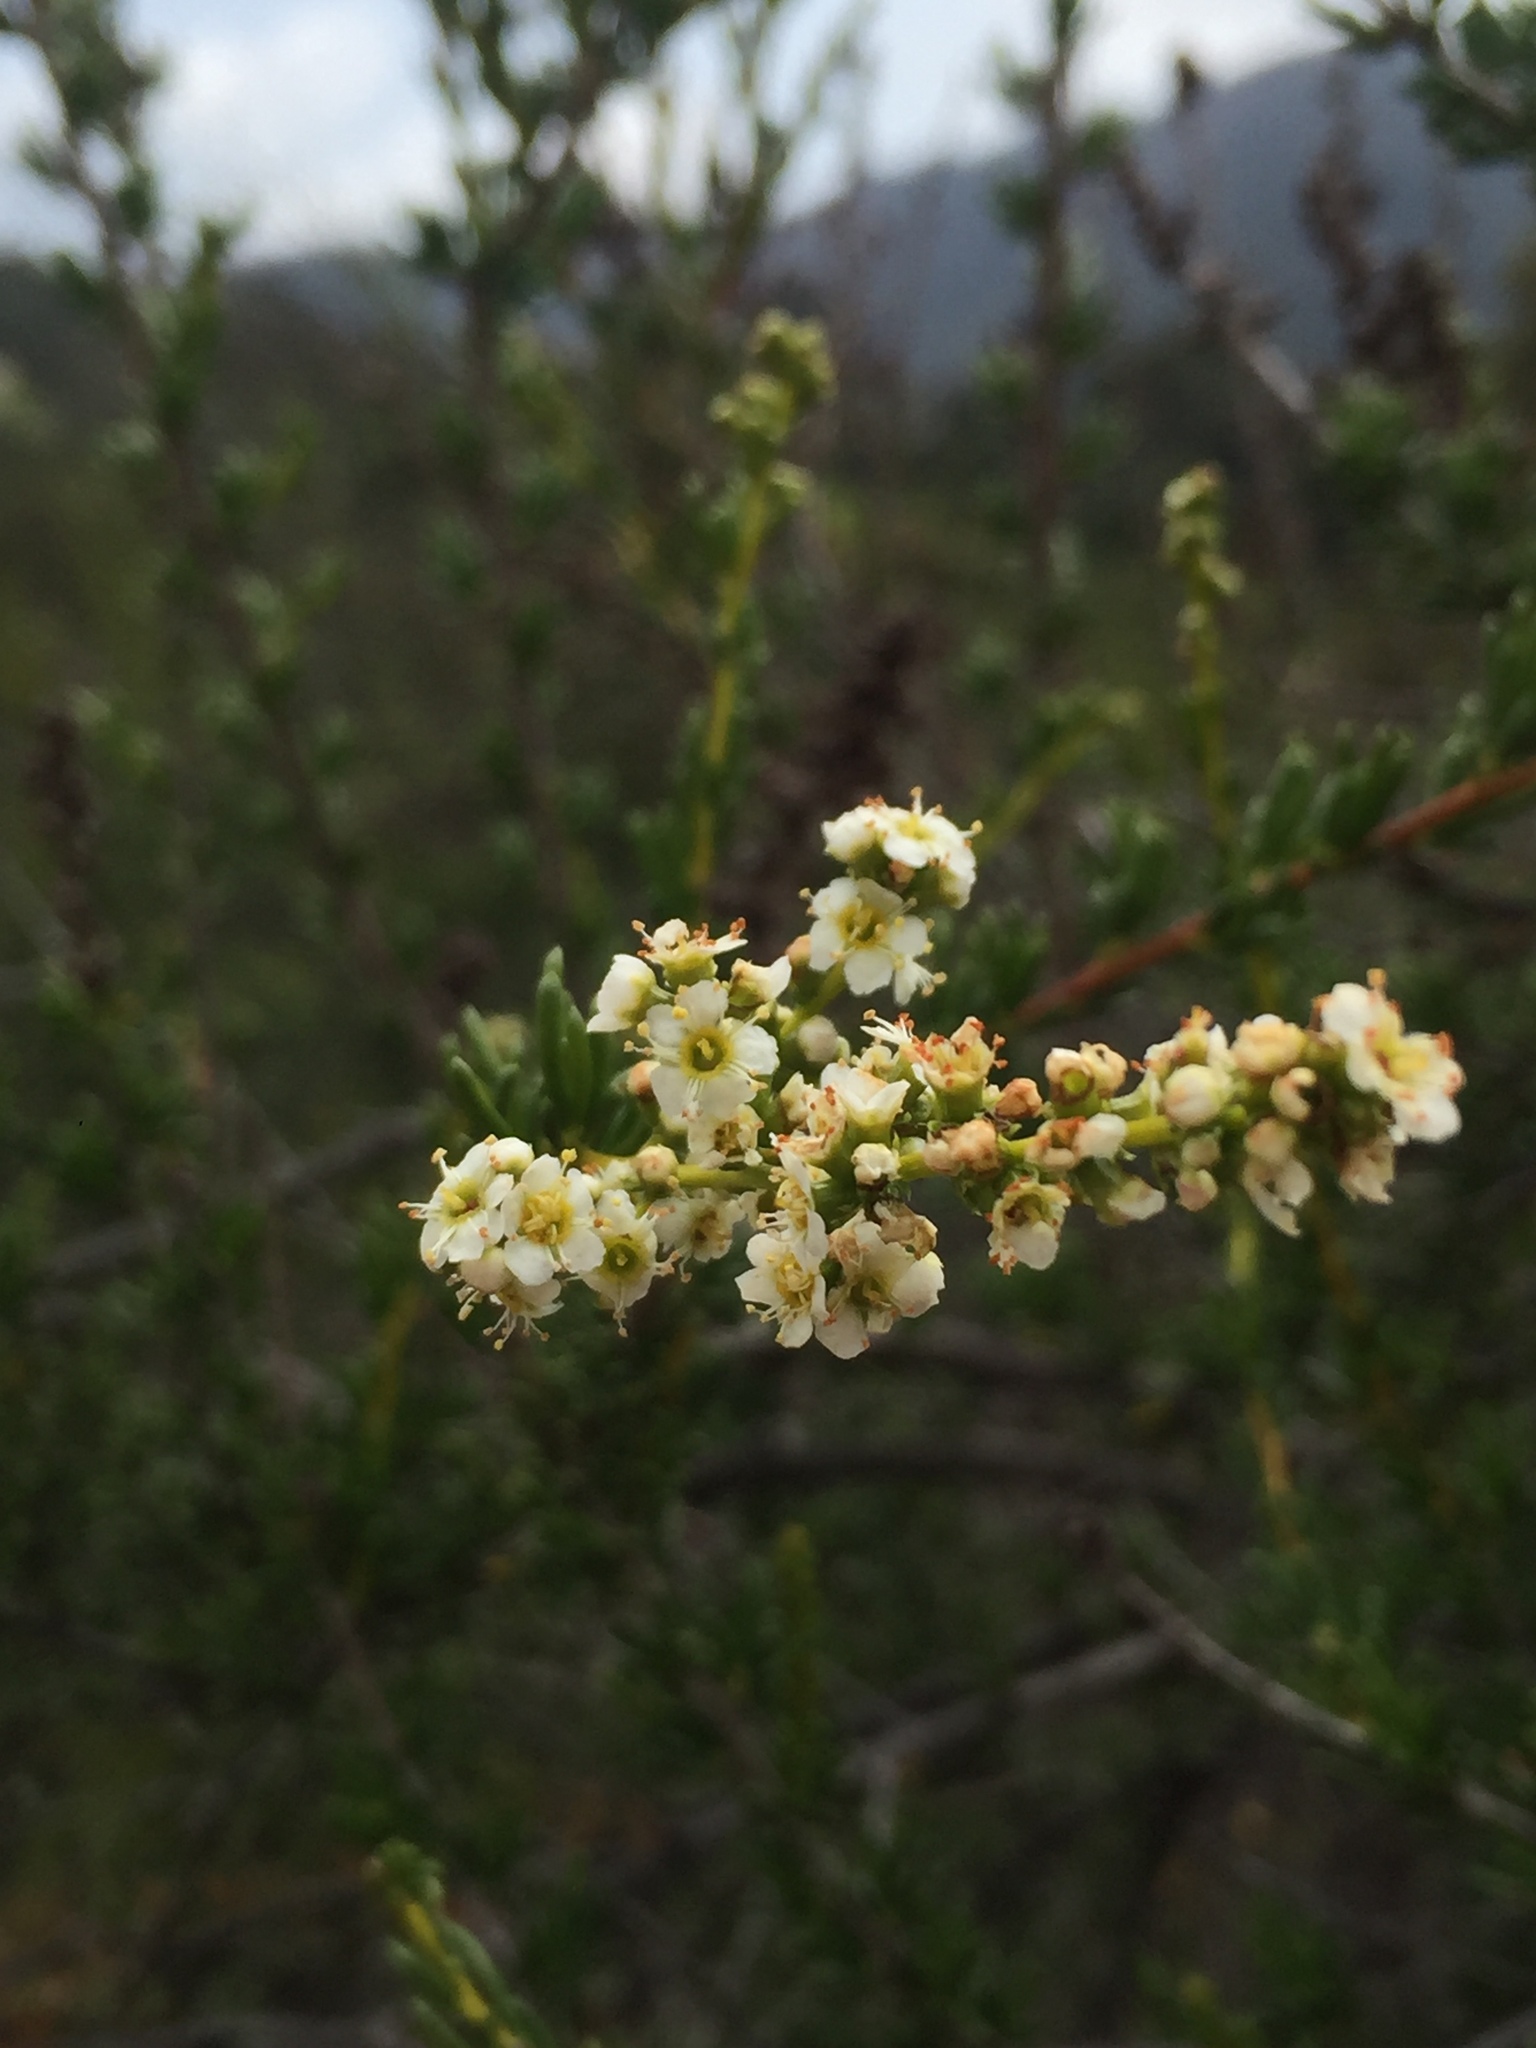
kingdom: Plantae
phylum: Tracheophyta
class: Magnoliopsida
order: Rosales
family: Rosaceae
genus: Adenostoma
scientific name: Adenostoma fasciculatum
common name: Chamise
